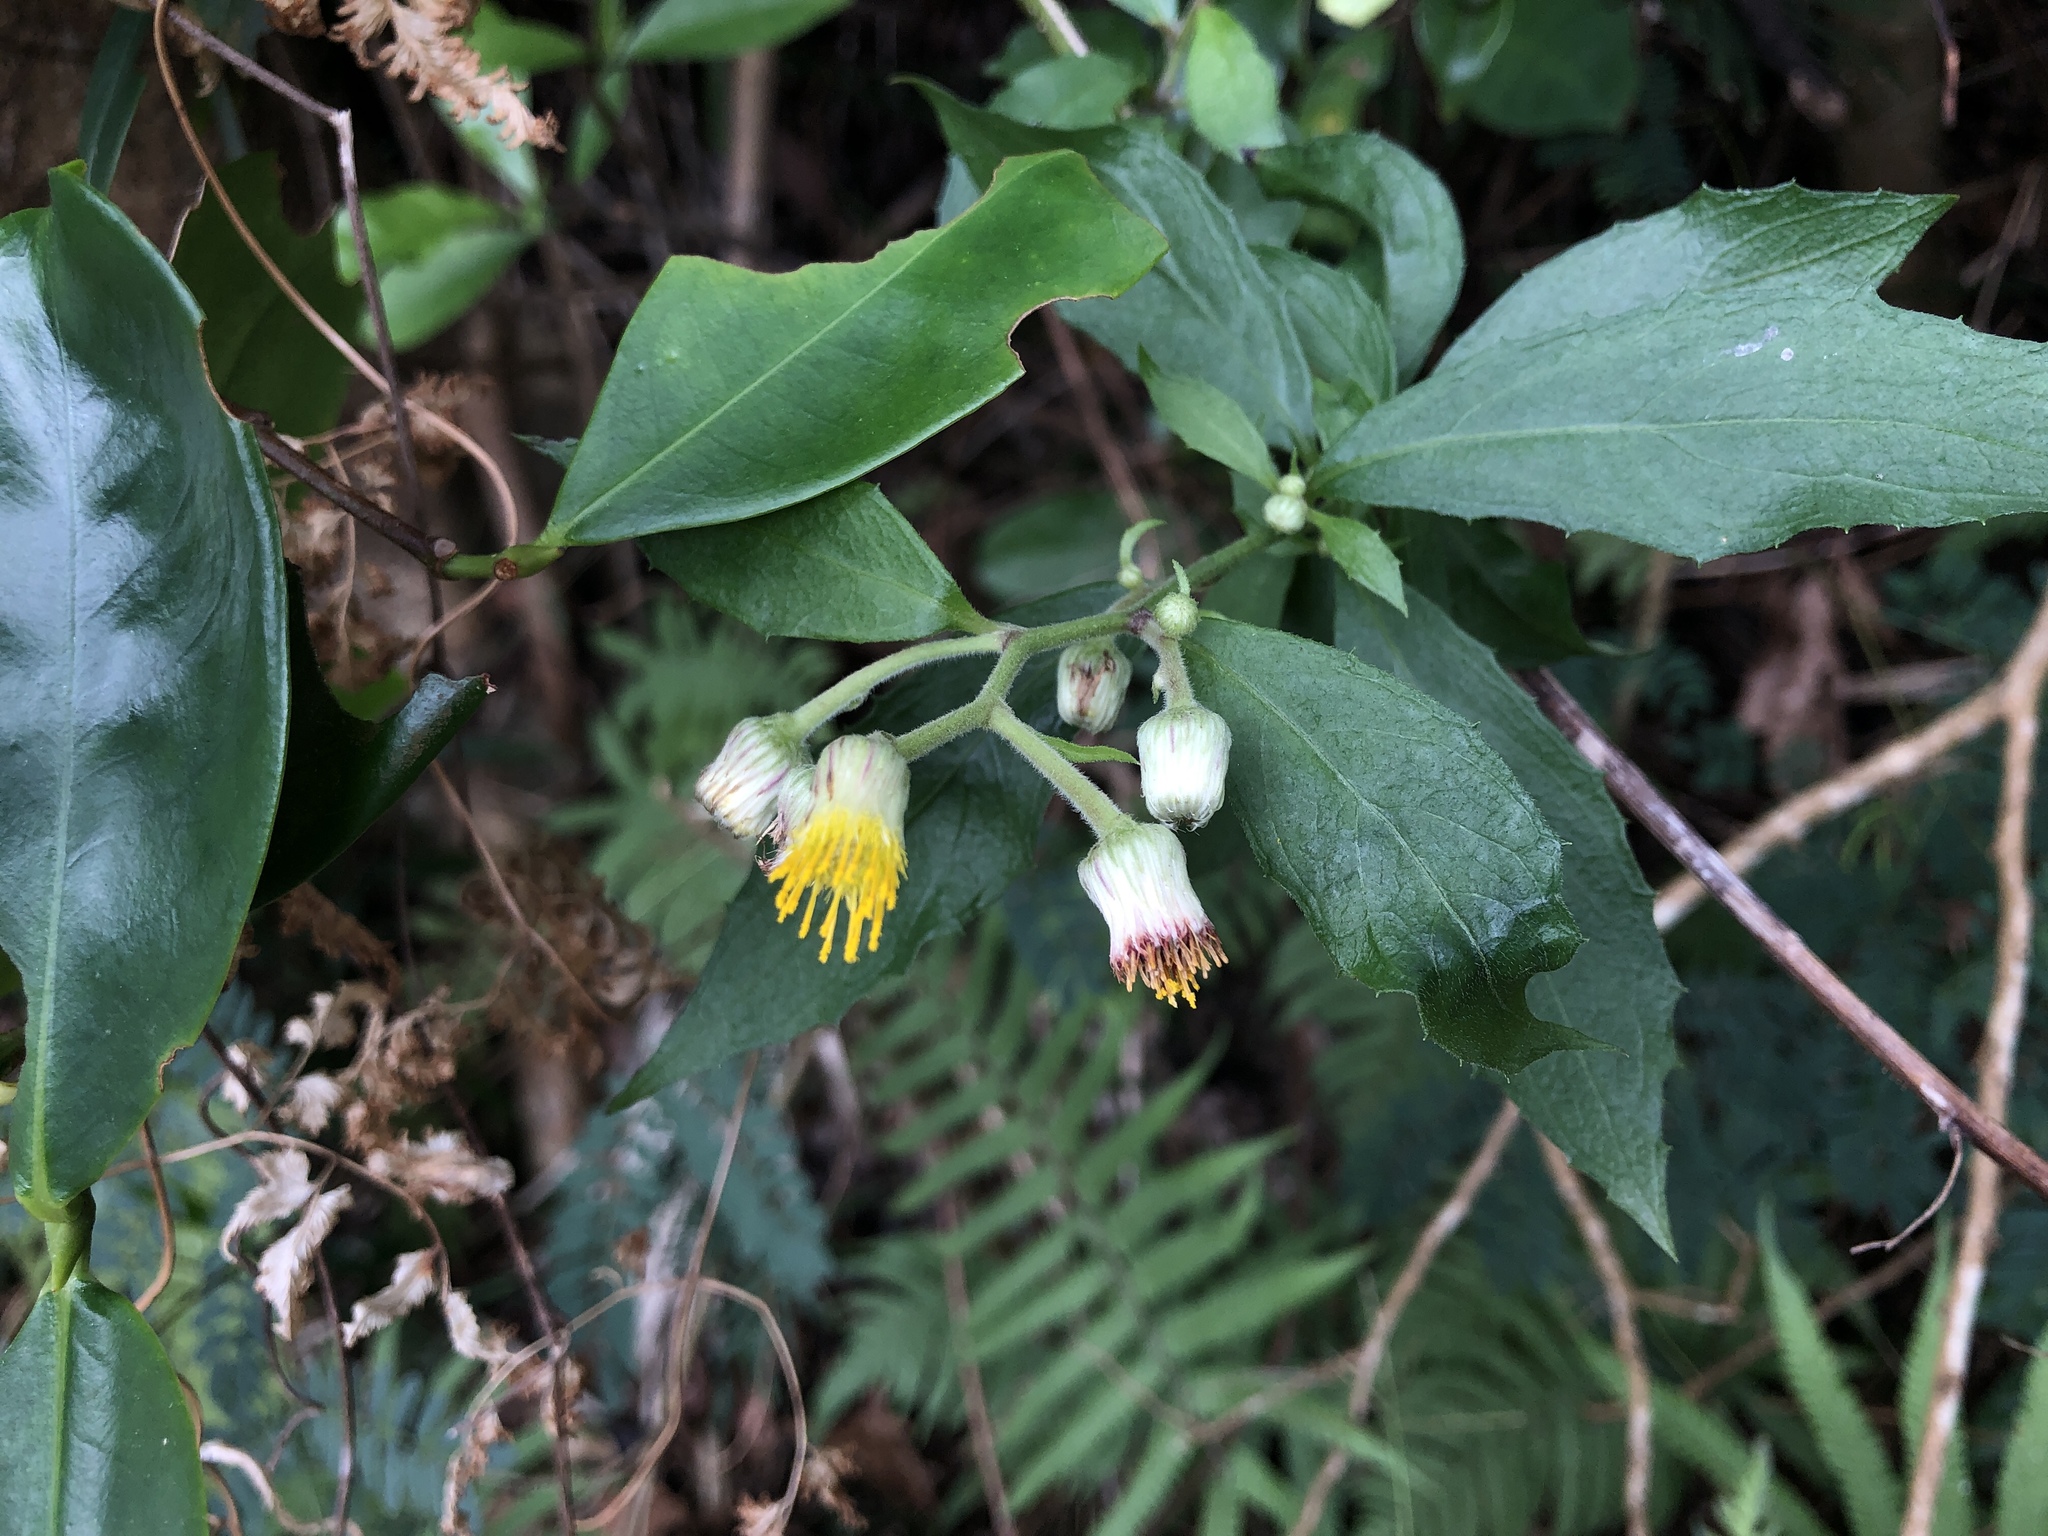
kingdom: Plantae
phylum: Tracheophyta
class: Magnoliopsida
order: Asterales
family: Asteraceae
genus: Blumea
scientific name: Blumea megacephala
